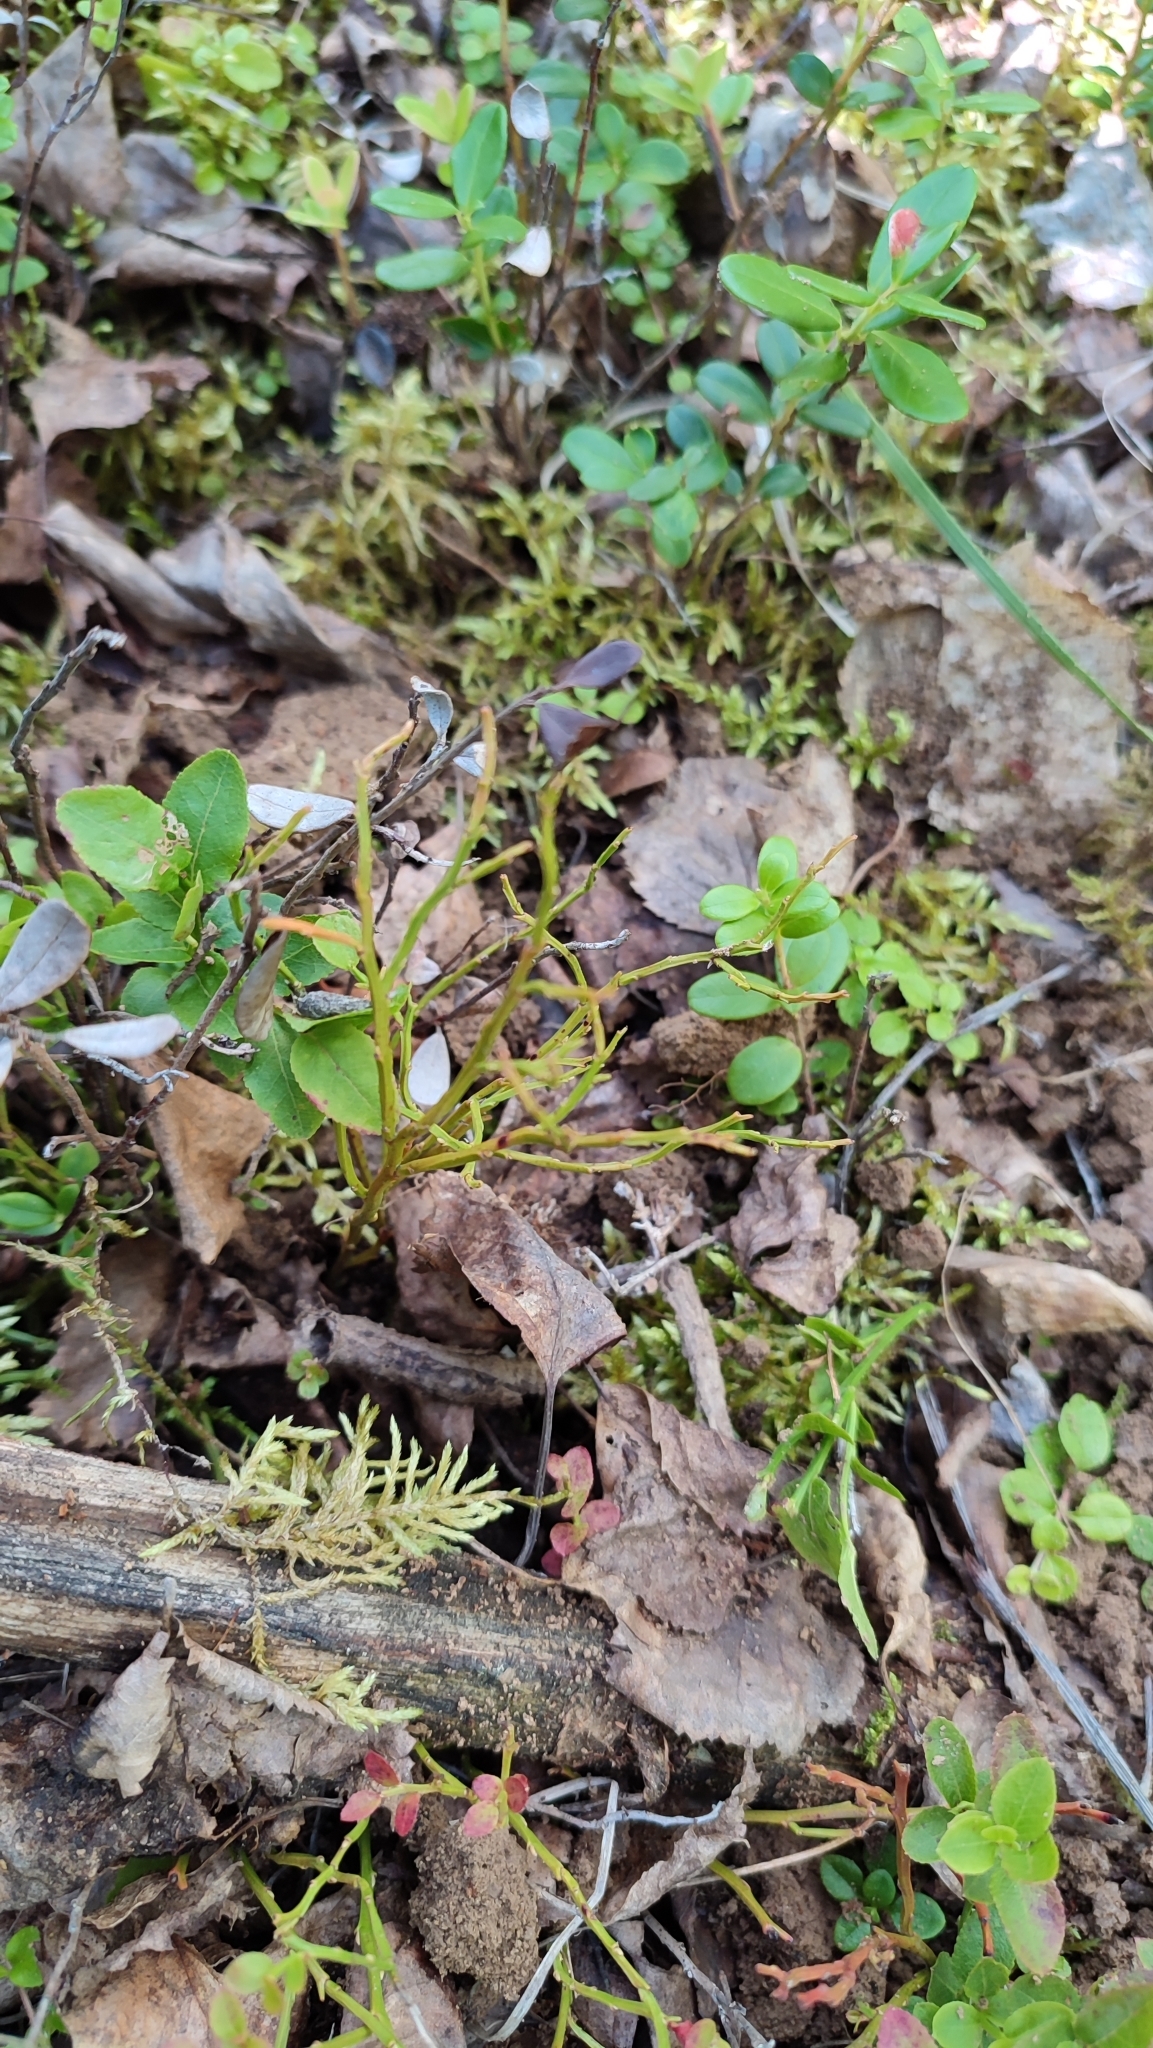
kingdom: Plantae
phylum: Tracheophyta
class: Magnoliopsida
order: Ericales
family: Ericaceae
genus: Vaccinium
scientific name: Vaccinium myrtillus
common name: Bilberry
